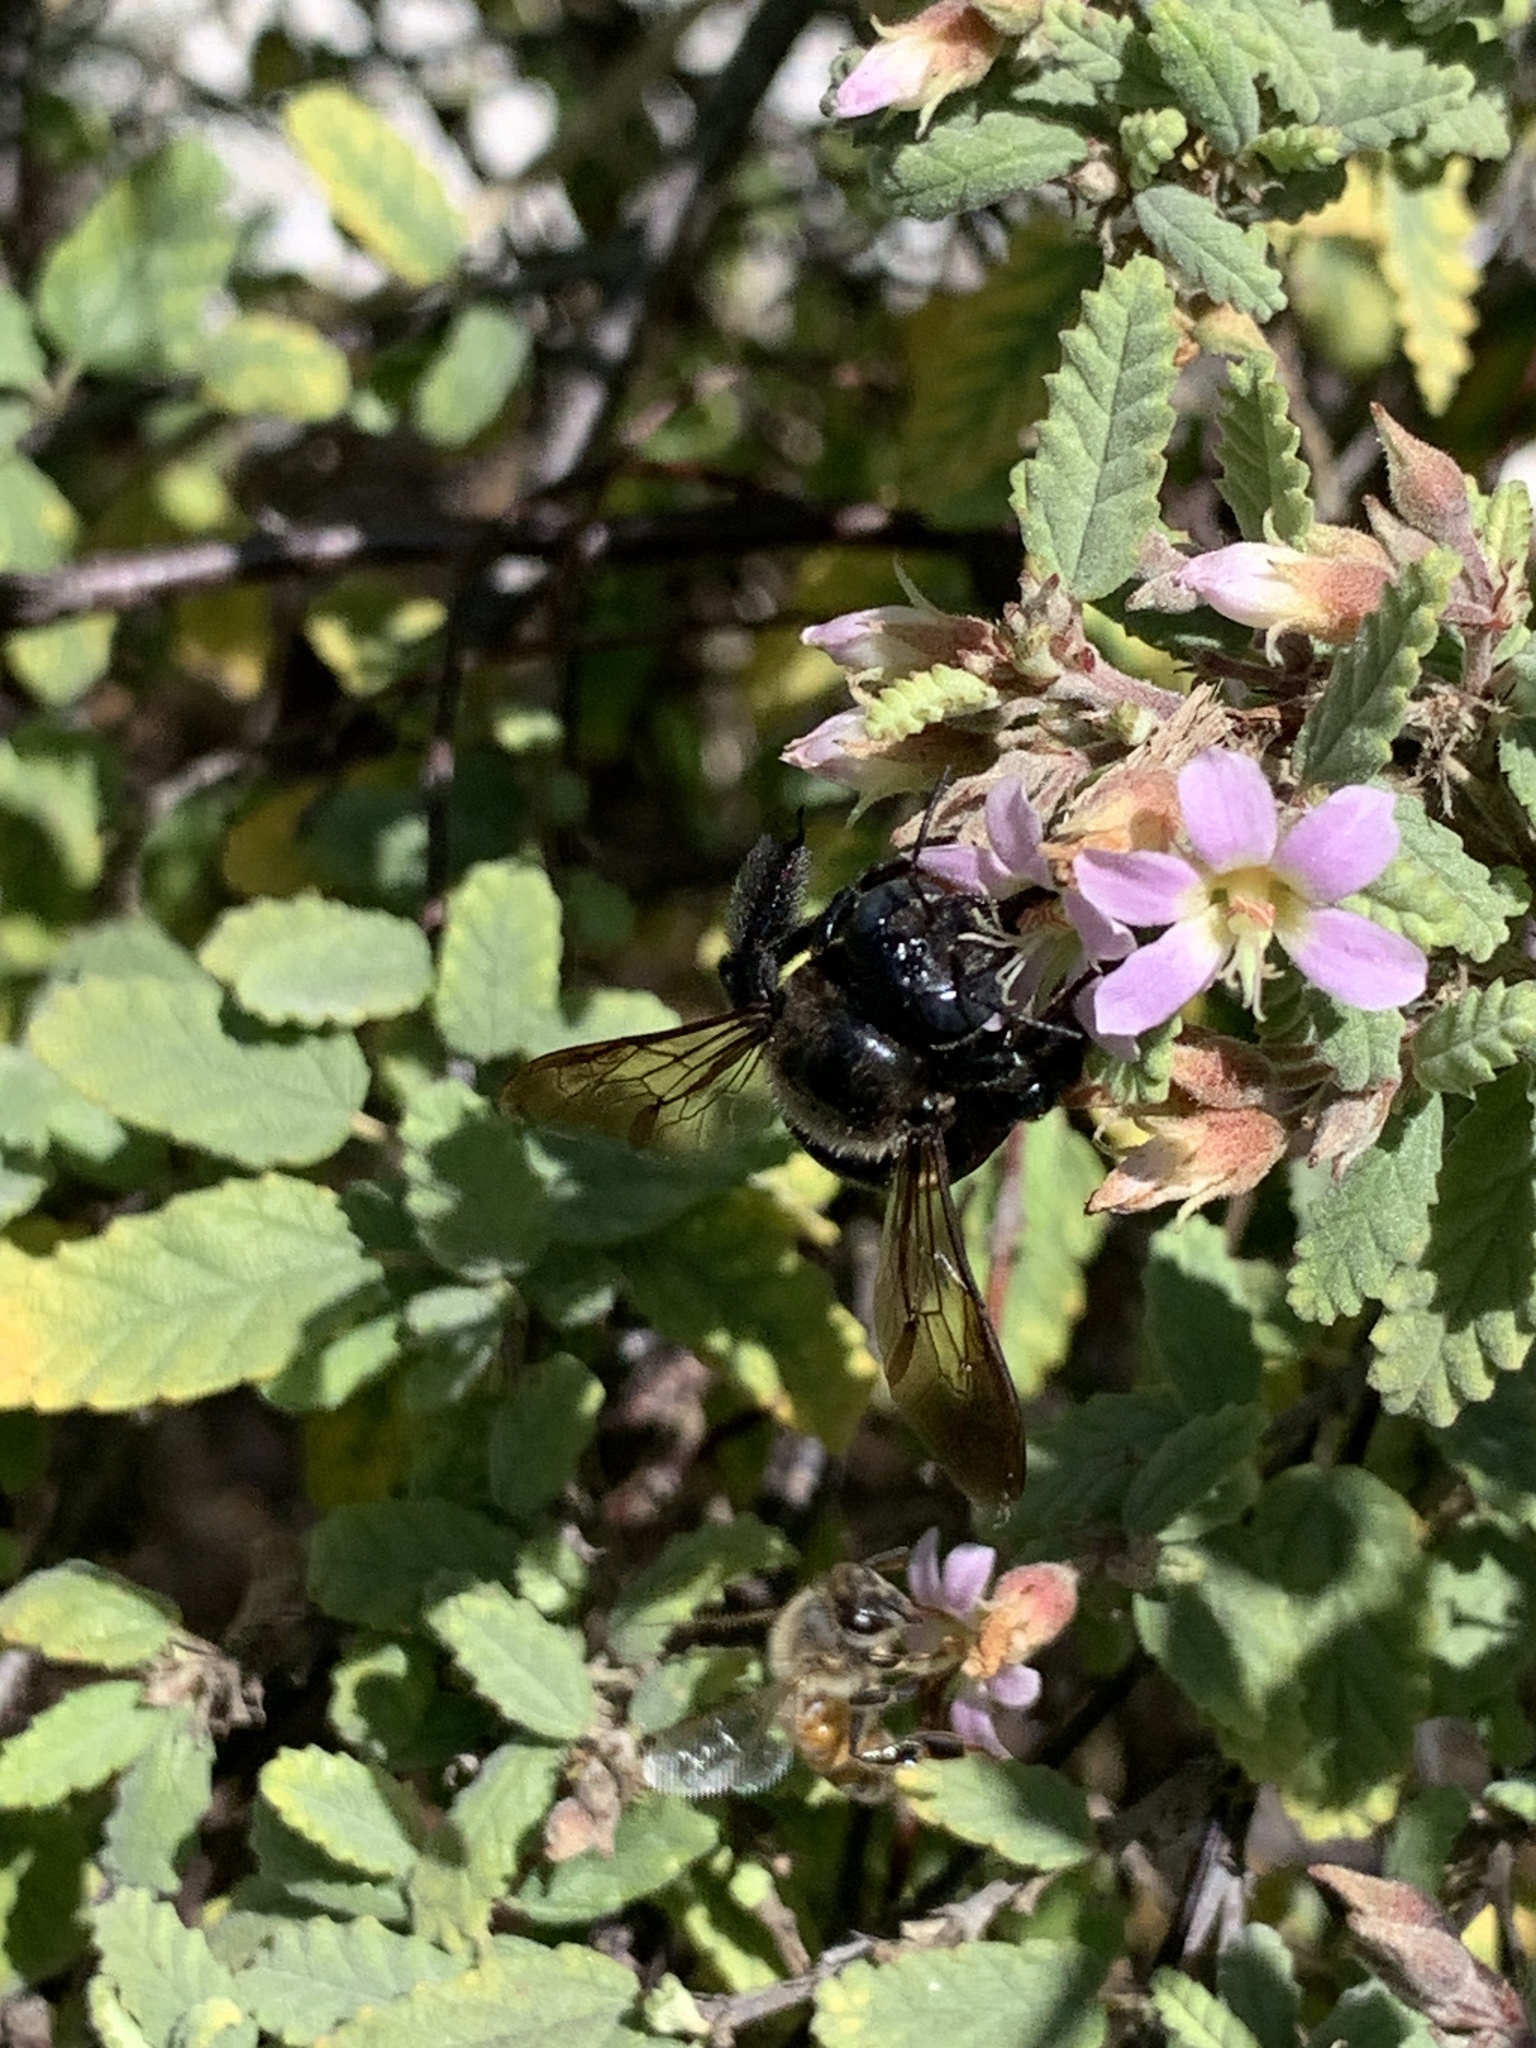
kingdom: Animalia
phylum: Arthropoda
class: Insecta
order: Hymenoptera
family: Apidae
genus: Xylocopa
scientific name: Xylocopa micans
